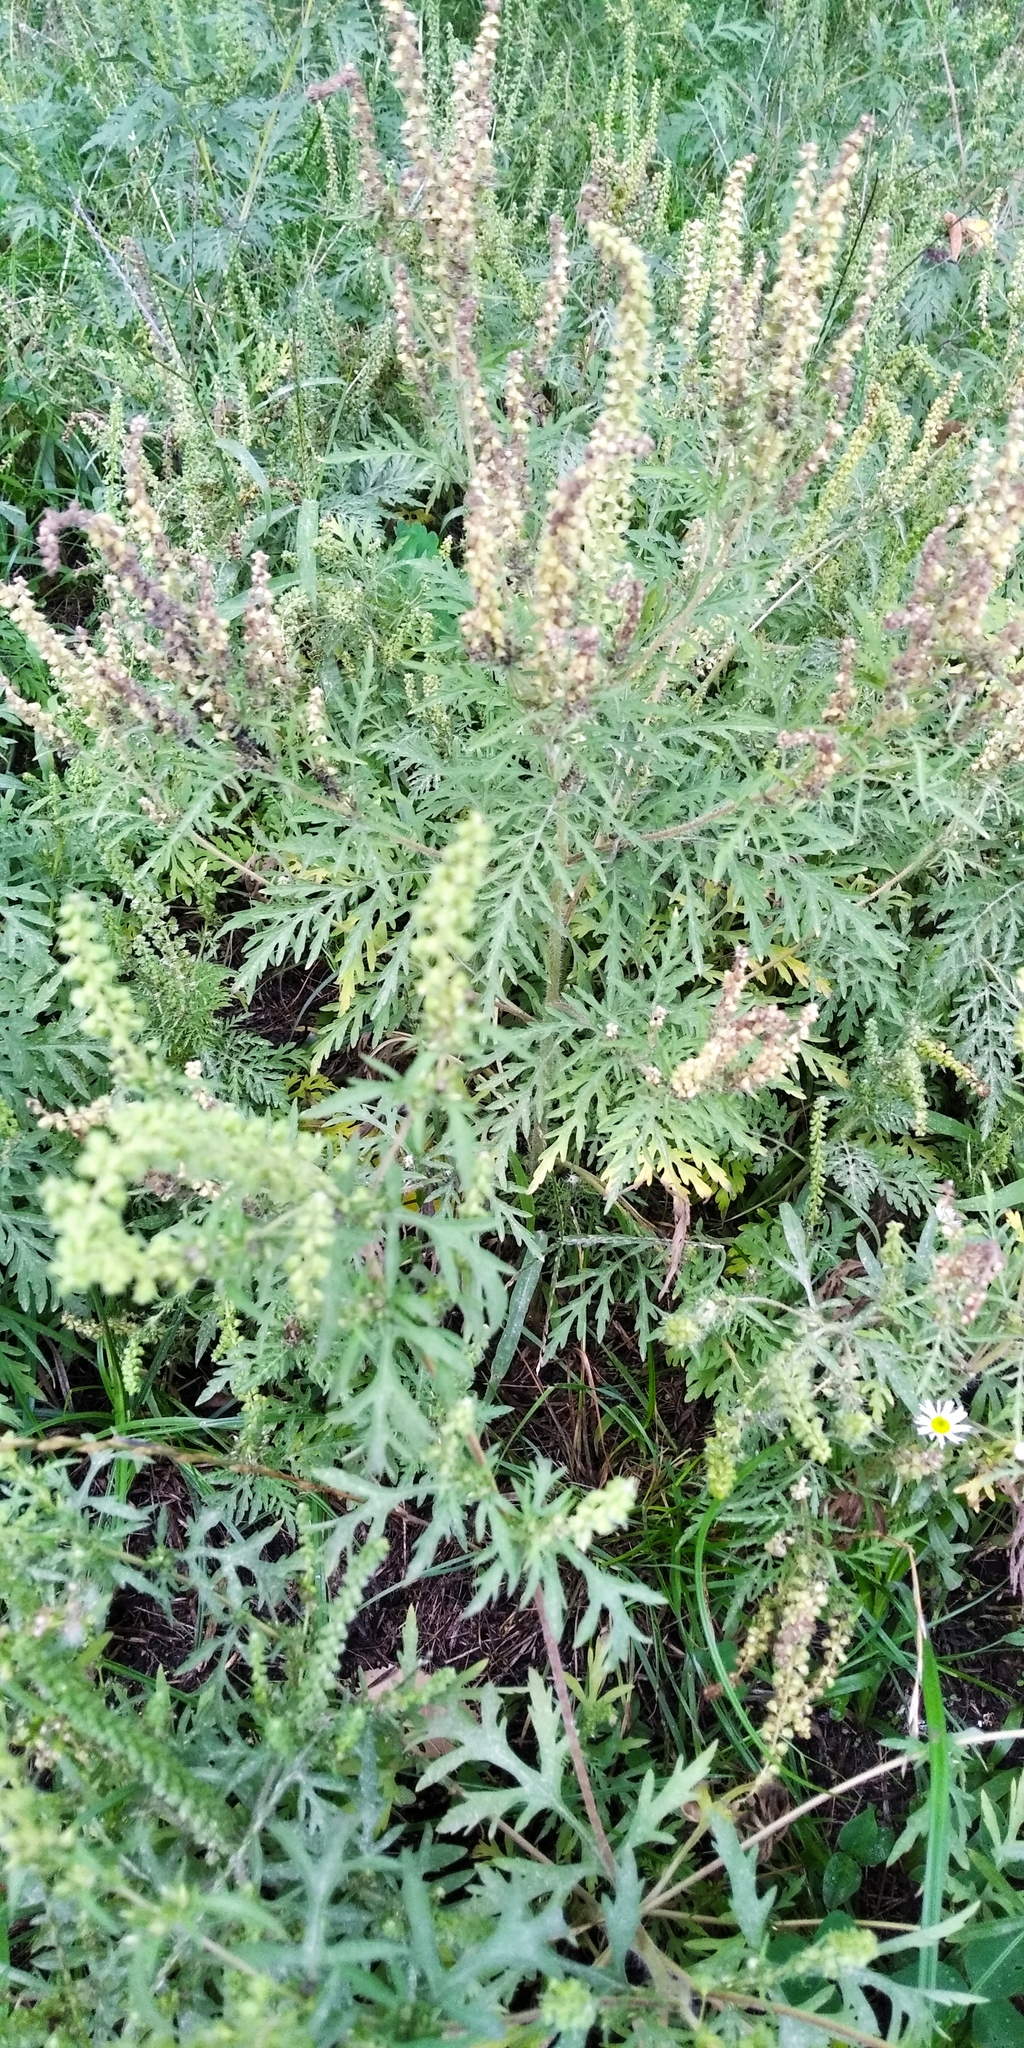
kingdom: Plantae
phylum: Tracheophyta
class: Magnoliopsida
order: Asterales
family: Asteraceae
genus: Ambrosia
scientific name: Ambrosia artemisiifolia
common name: Annual ragweed
